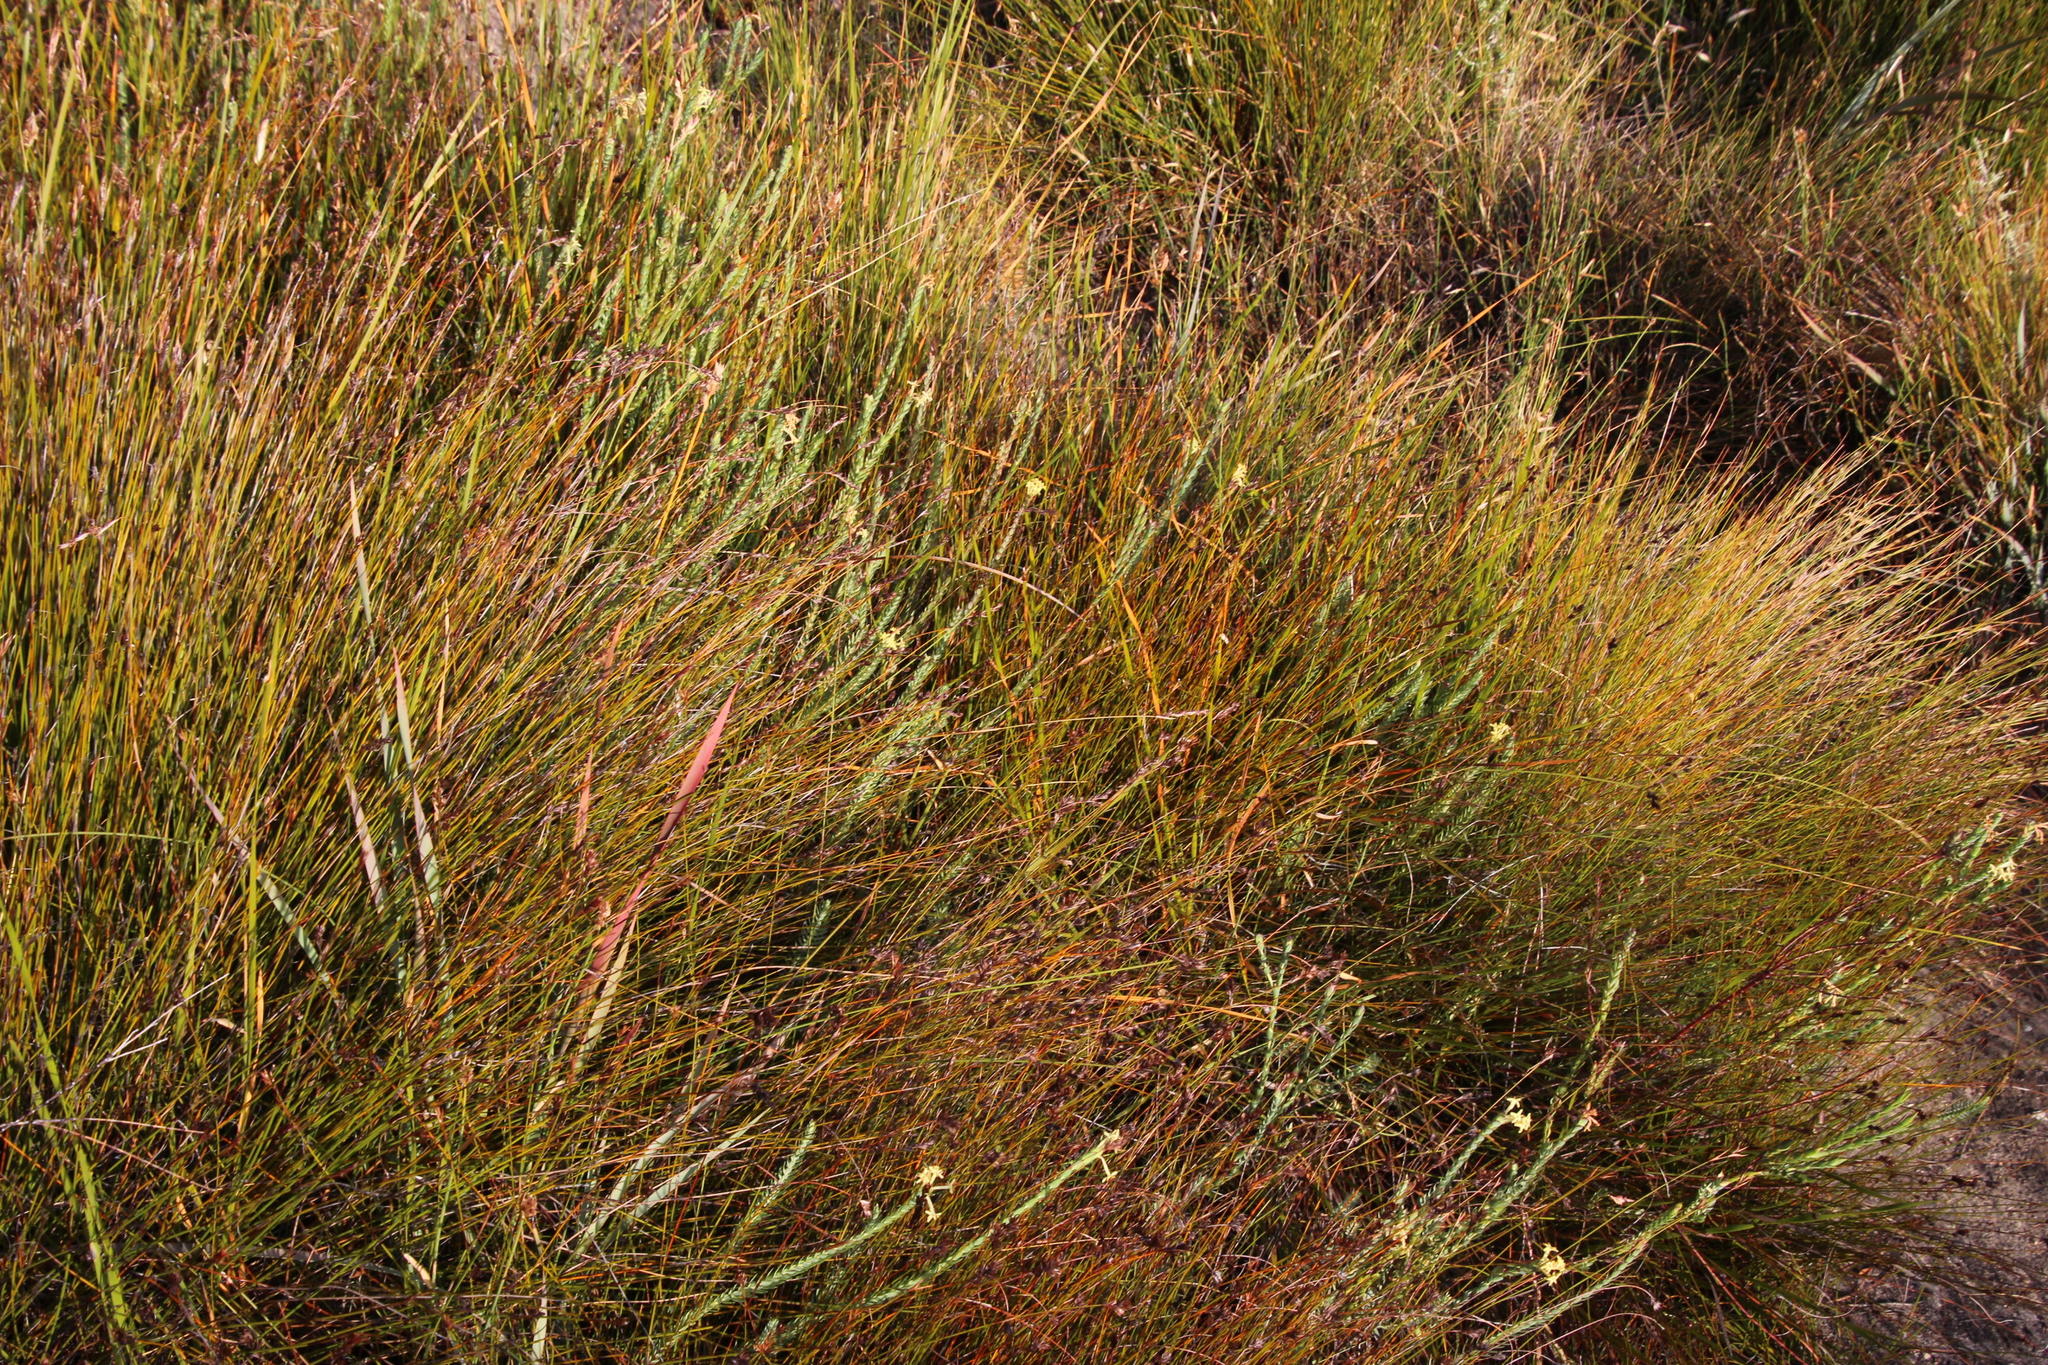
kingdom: Plantae
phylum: Tracheophyta
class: Magnoliopsida
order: Malvales
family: Thymelaeaceae
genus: Gnidia
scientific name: Gnidia oppositifolia
